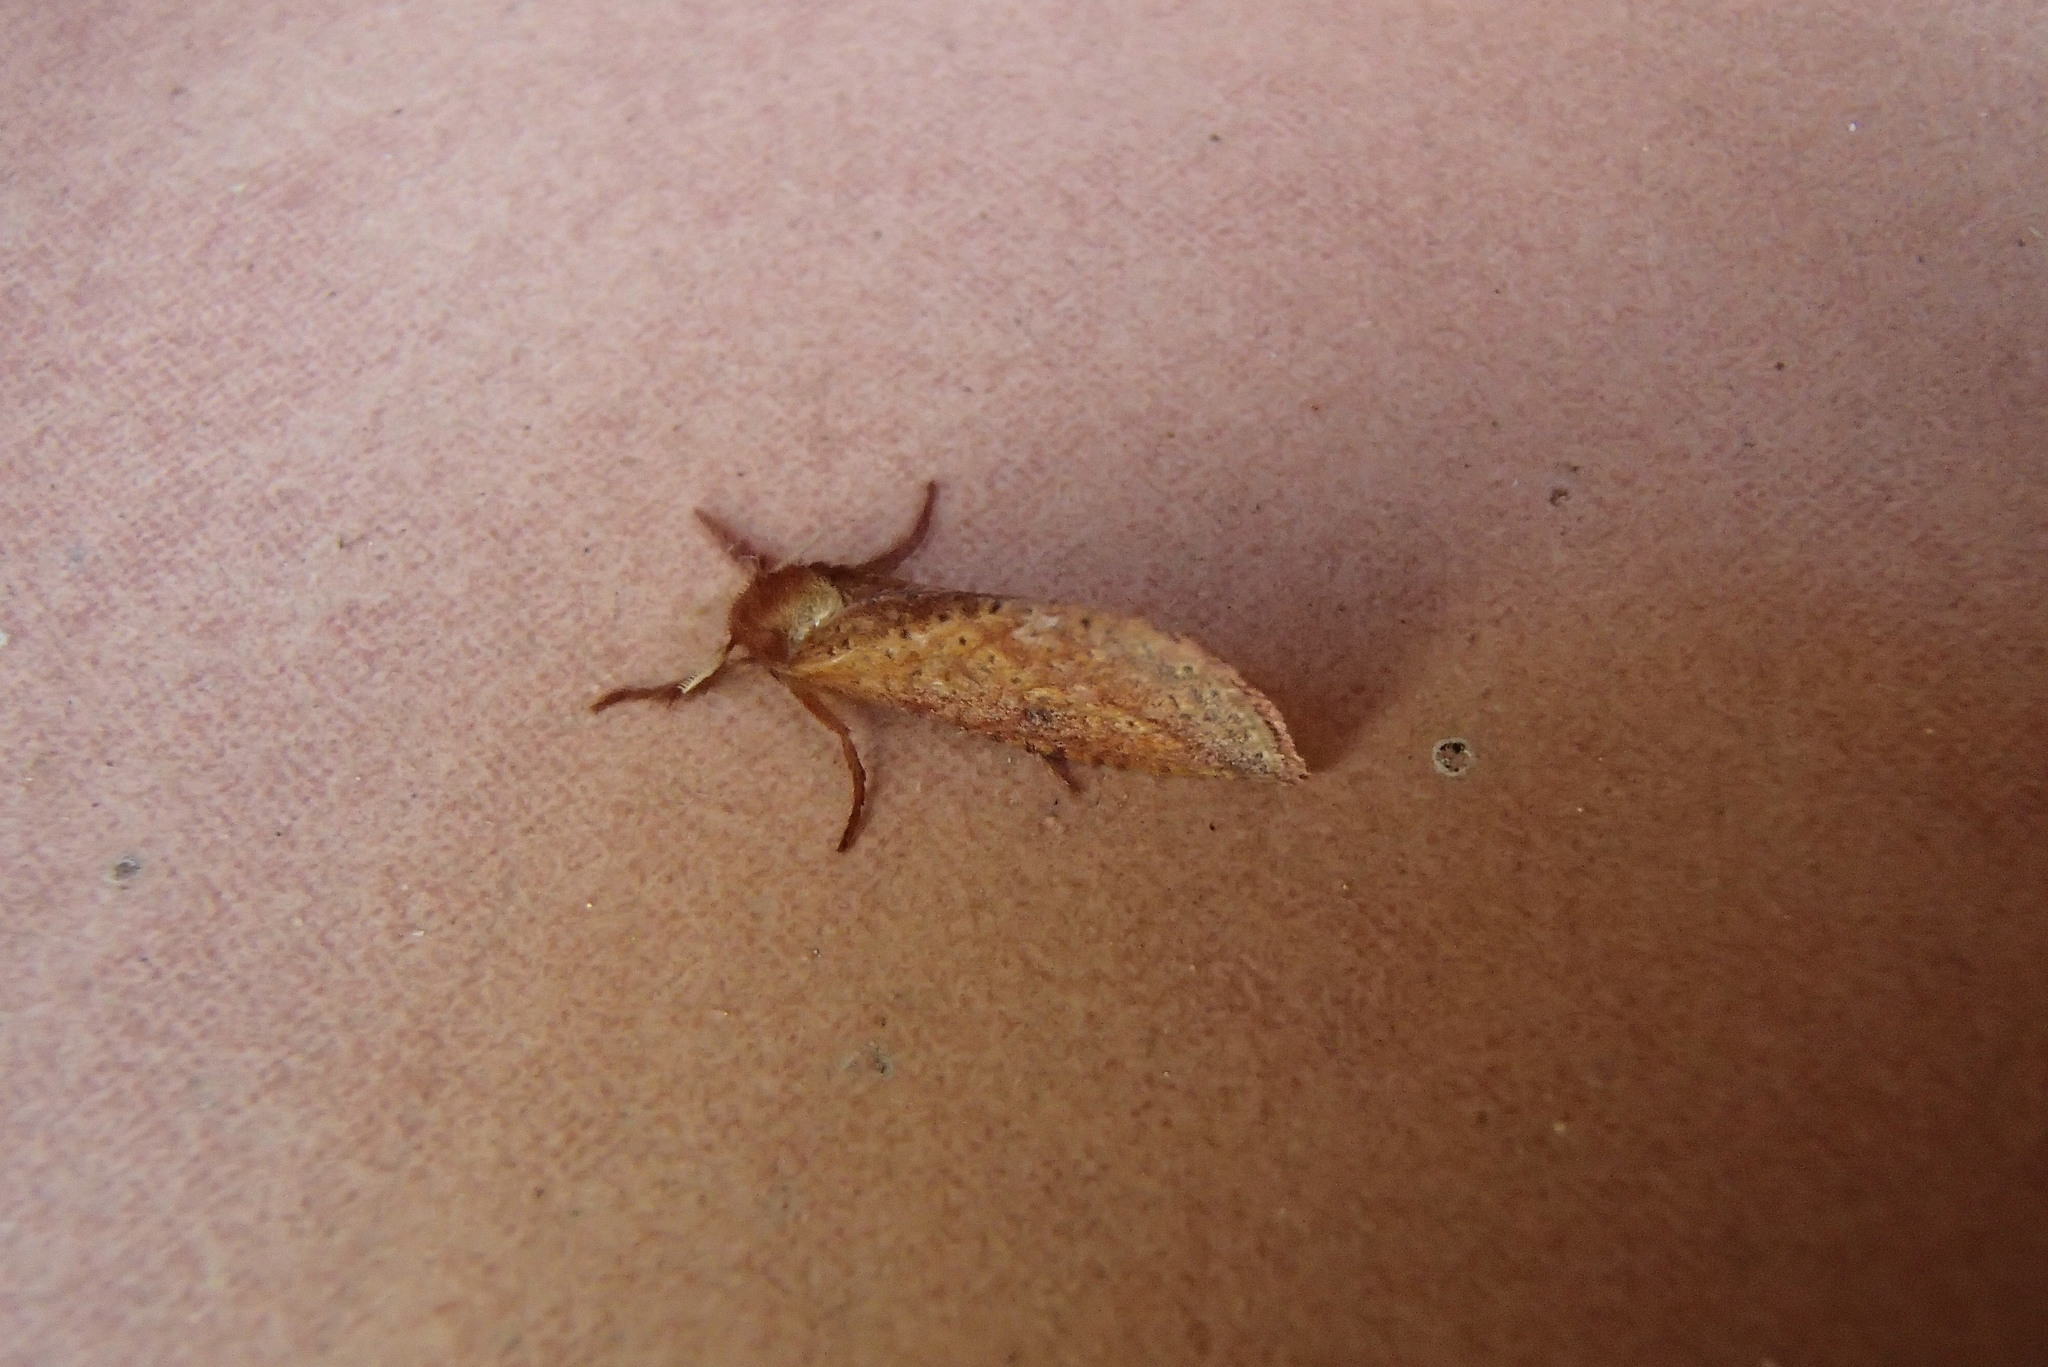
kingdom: Animalia
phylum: Arthropoda
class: Insecta
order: Lepidoptera
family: Hepialidae
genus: Fraus
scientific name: Fraus crocea
